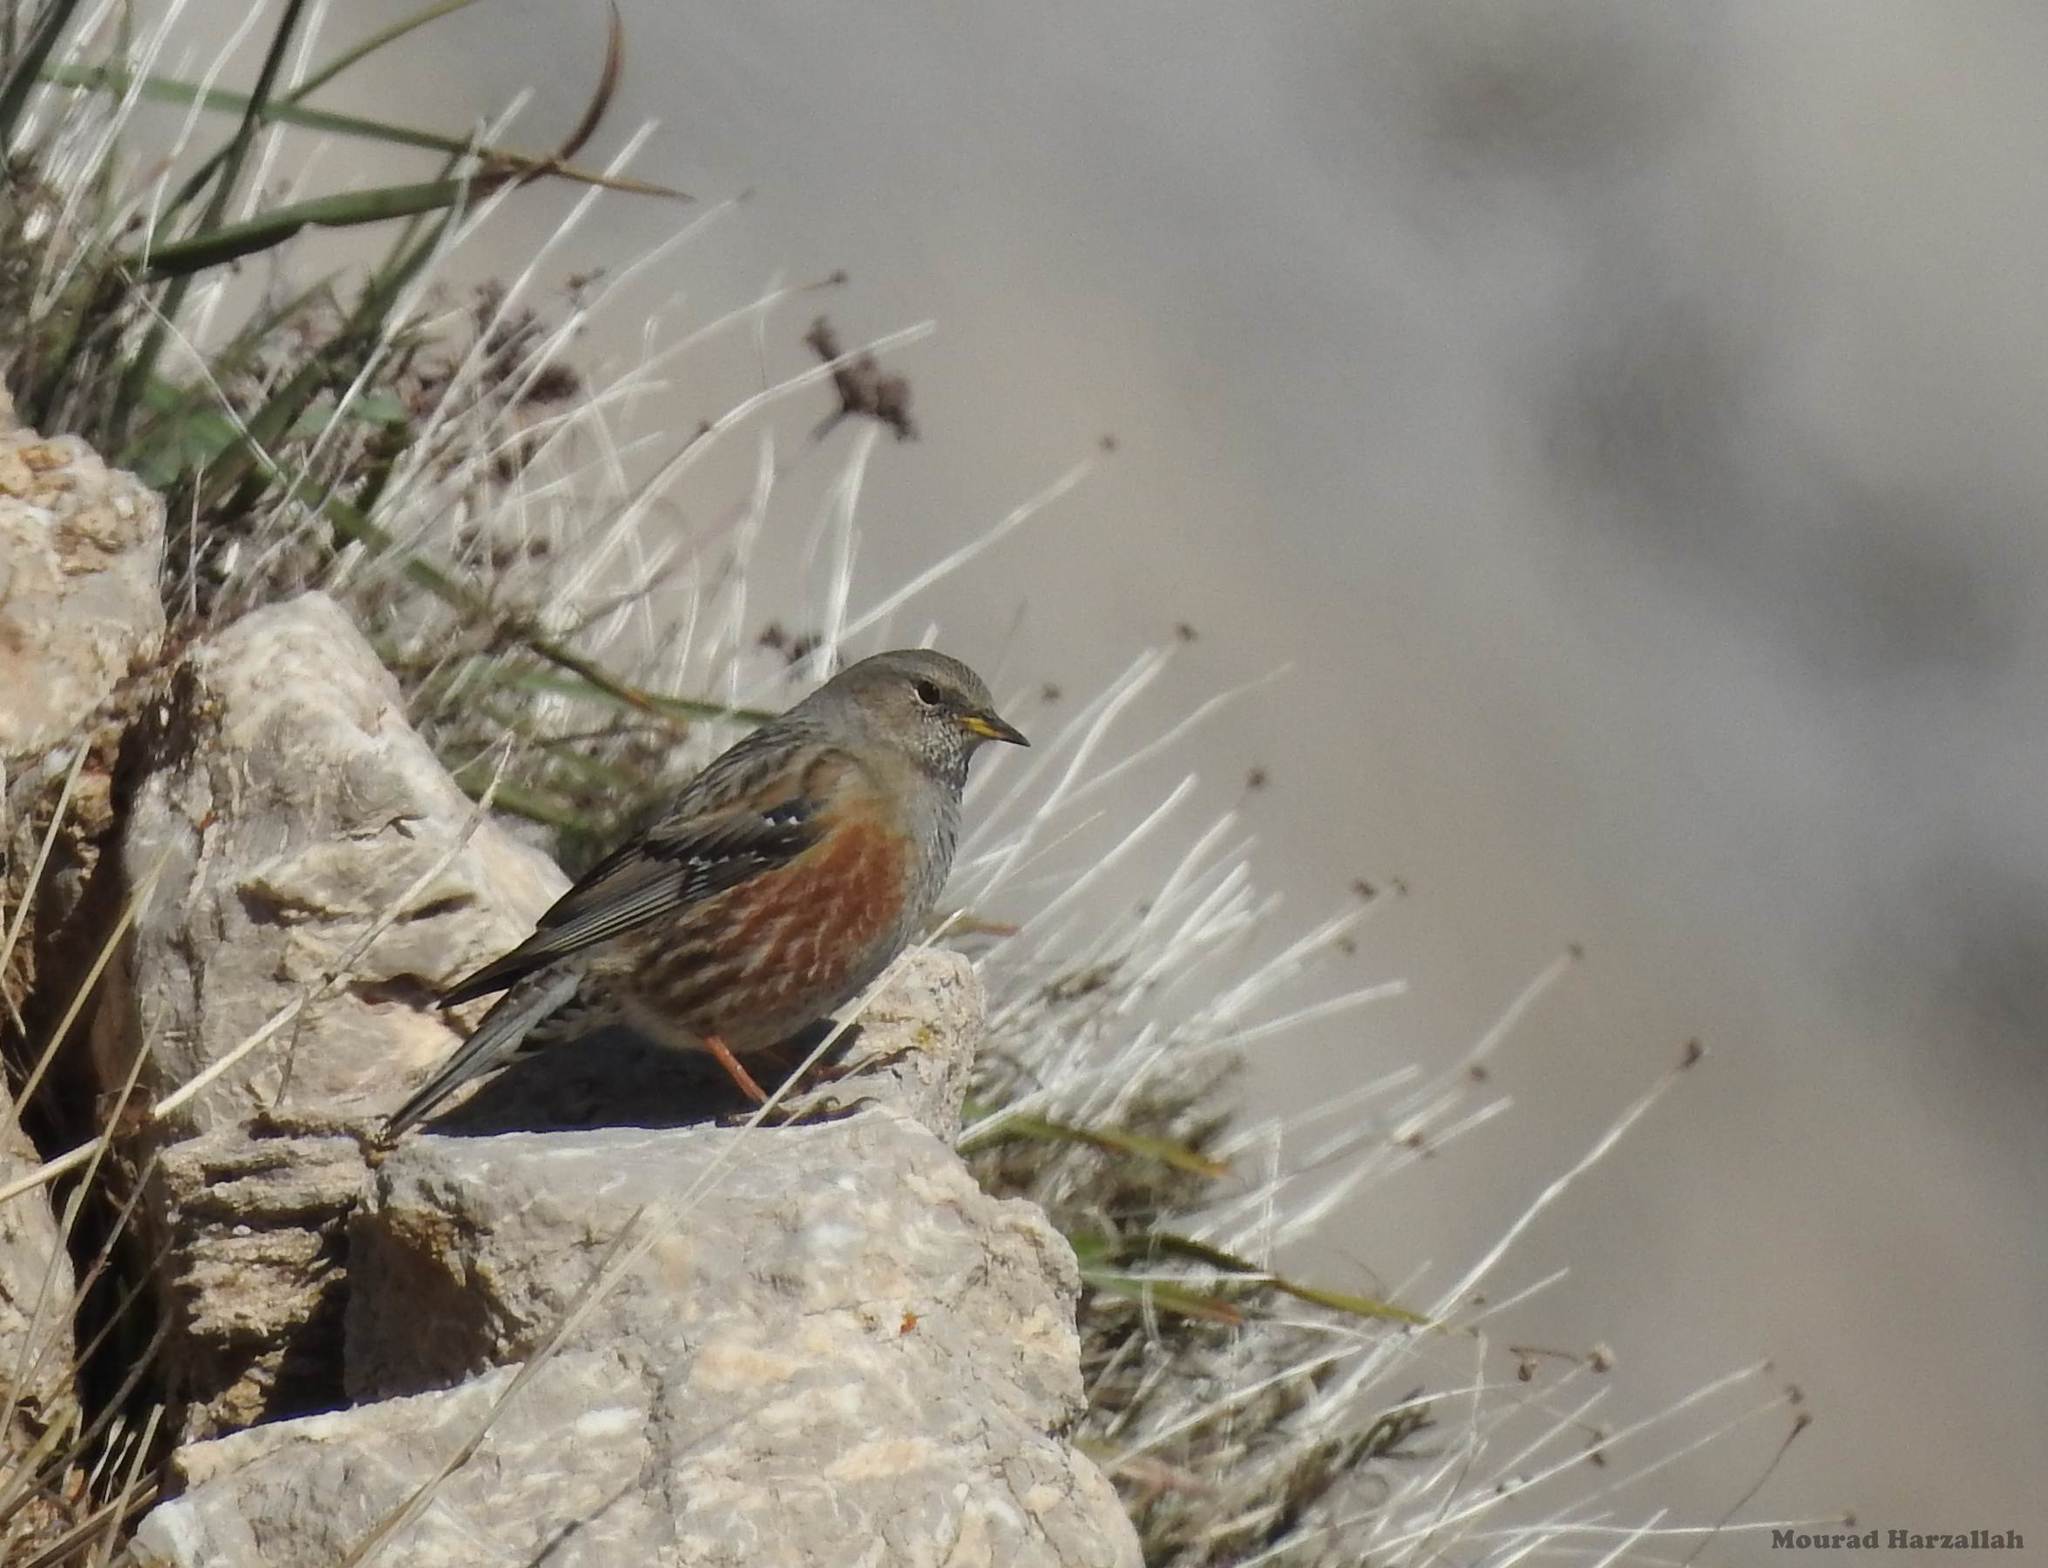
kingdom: Animalia
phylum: Chordata
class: Aves
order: Passeriformes
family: Prunellidae
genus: Prunella
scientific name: Prunella collaris
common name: Alpine accentor
